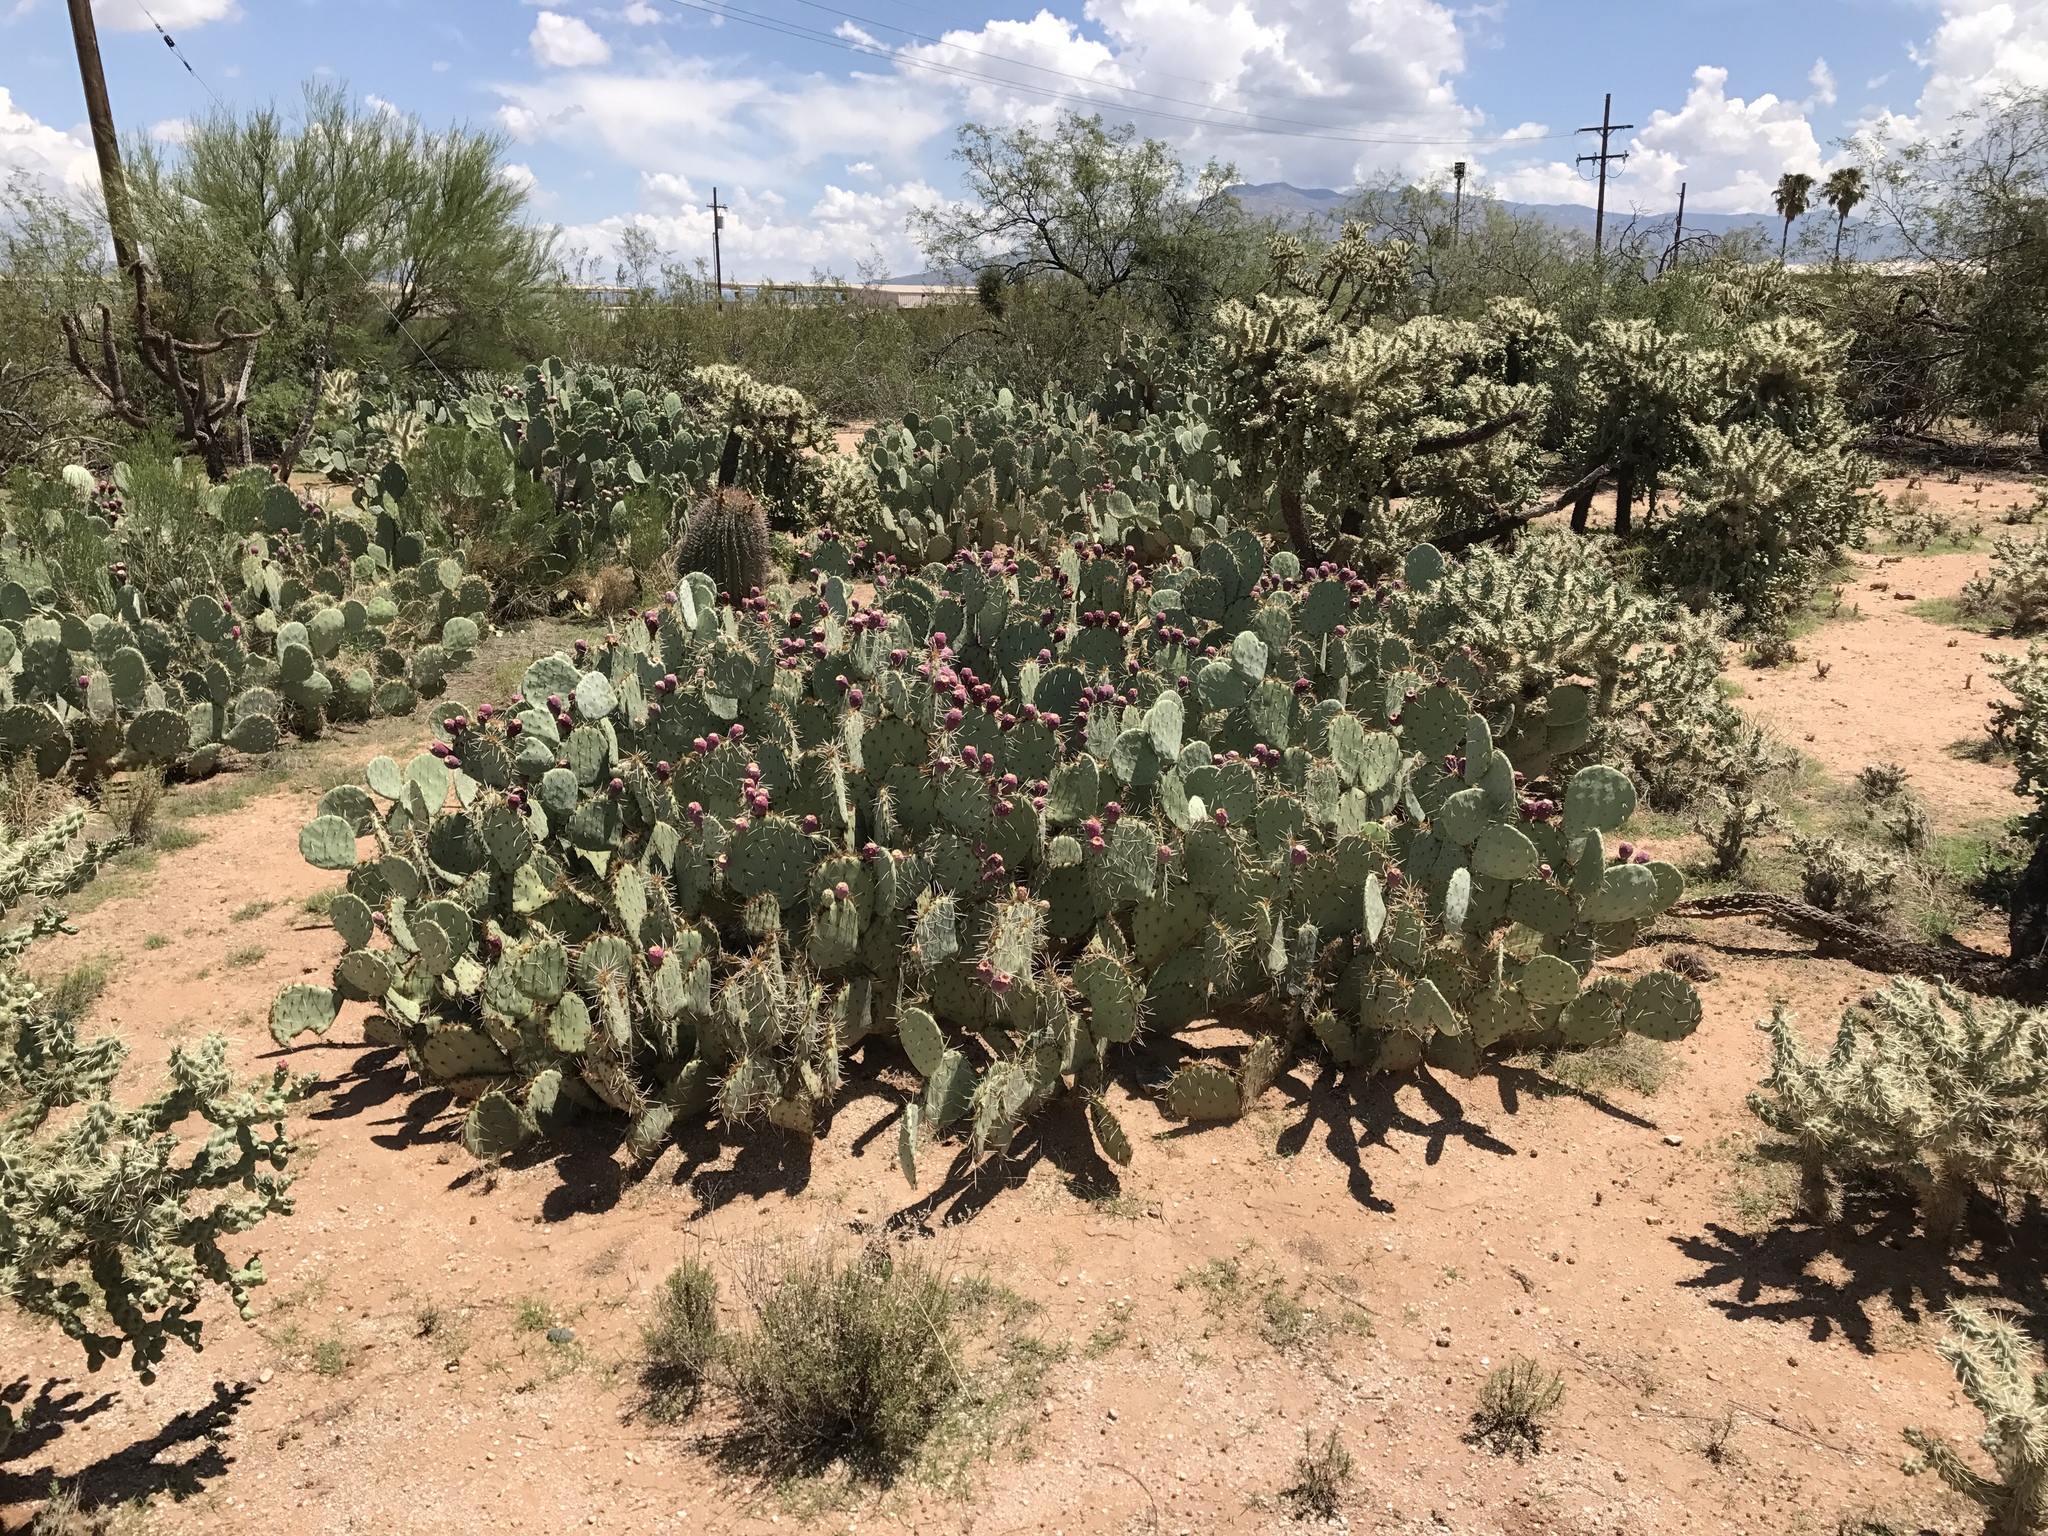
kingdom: Plantae
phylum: Tracheophyta
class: Magnoliopsida
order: Caryophyllales
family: Cactaceae
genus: Opuntia
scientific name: Opuntia engelmannii
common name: Cactus-apple
